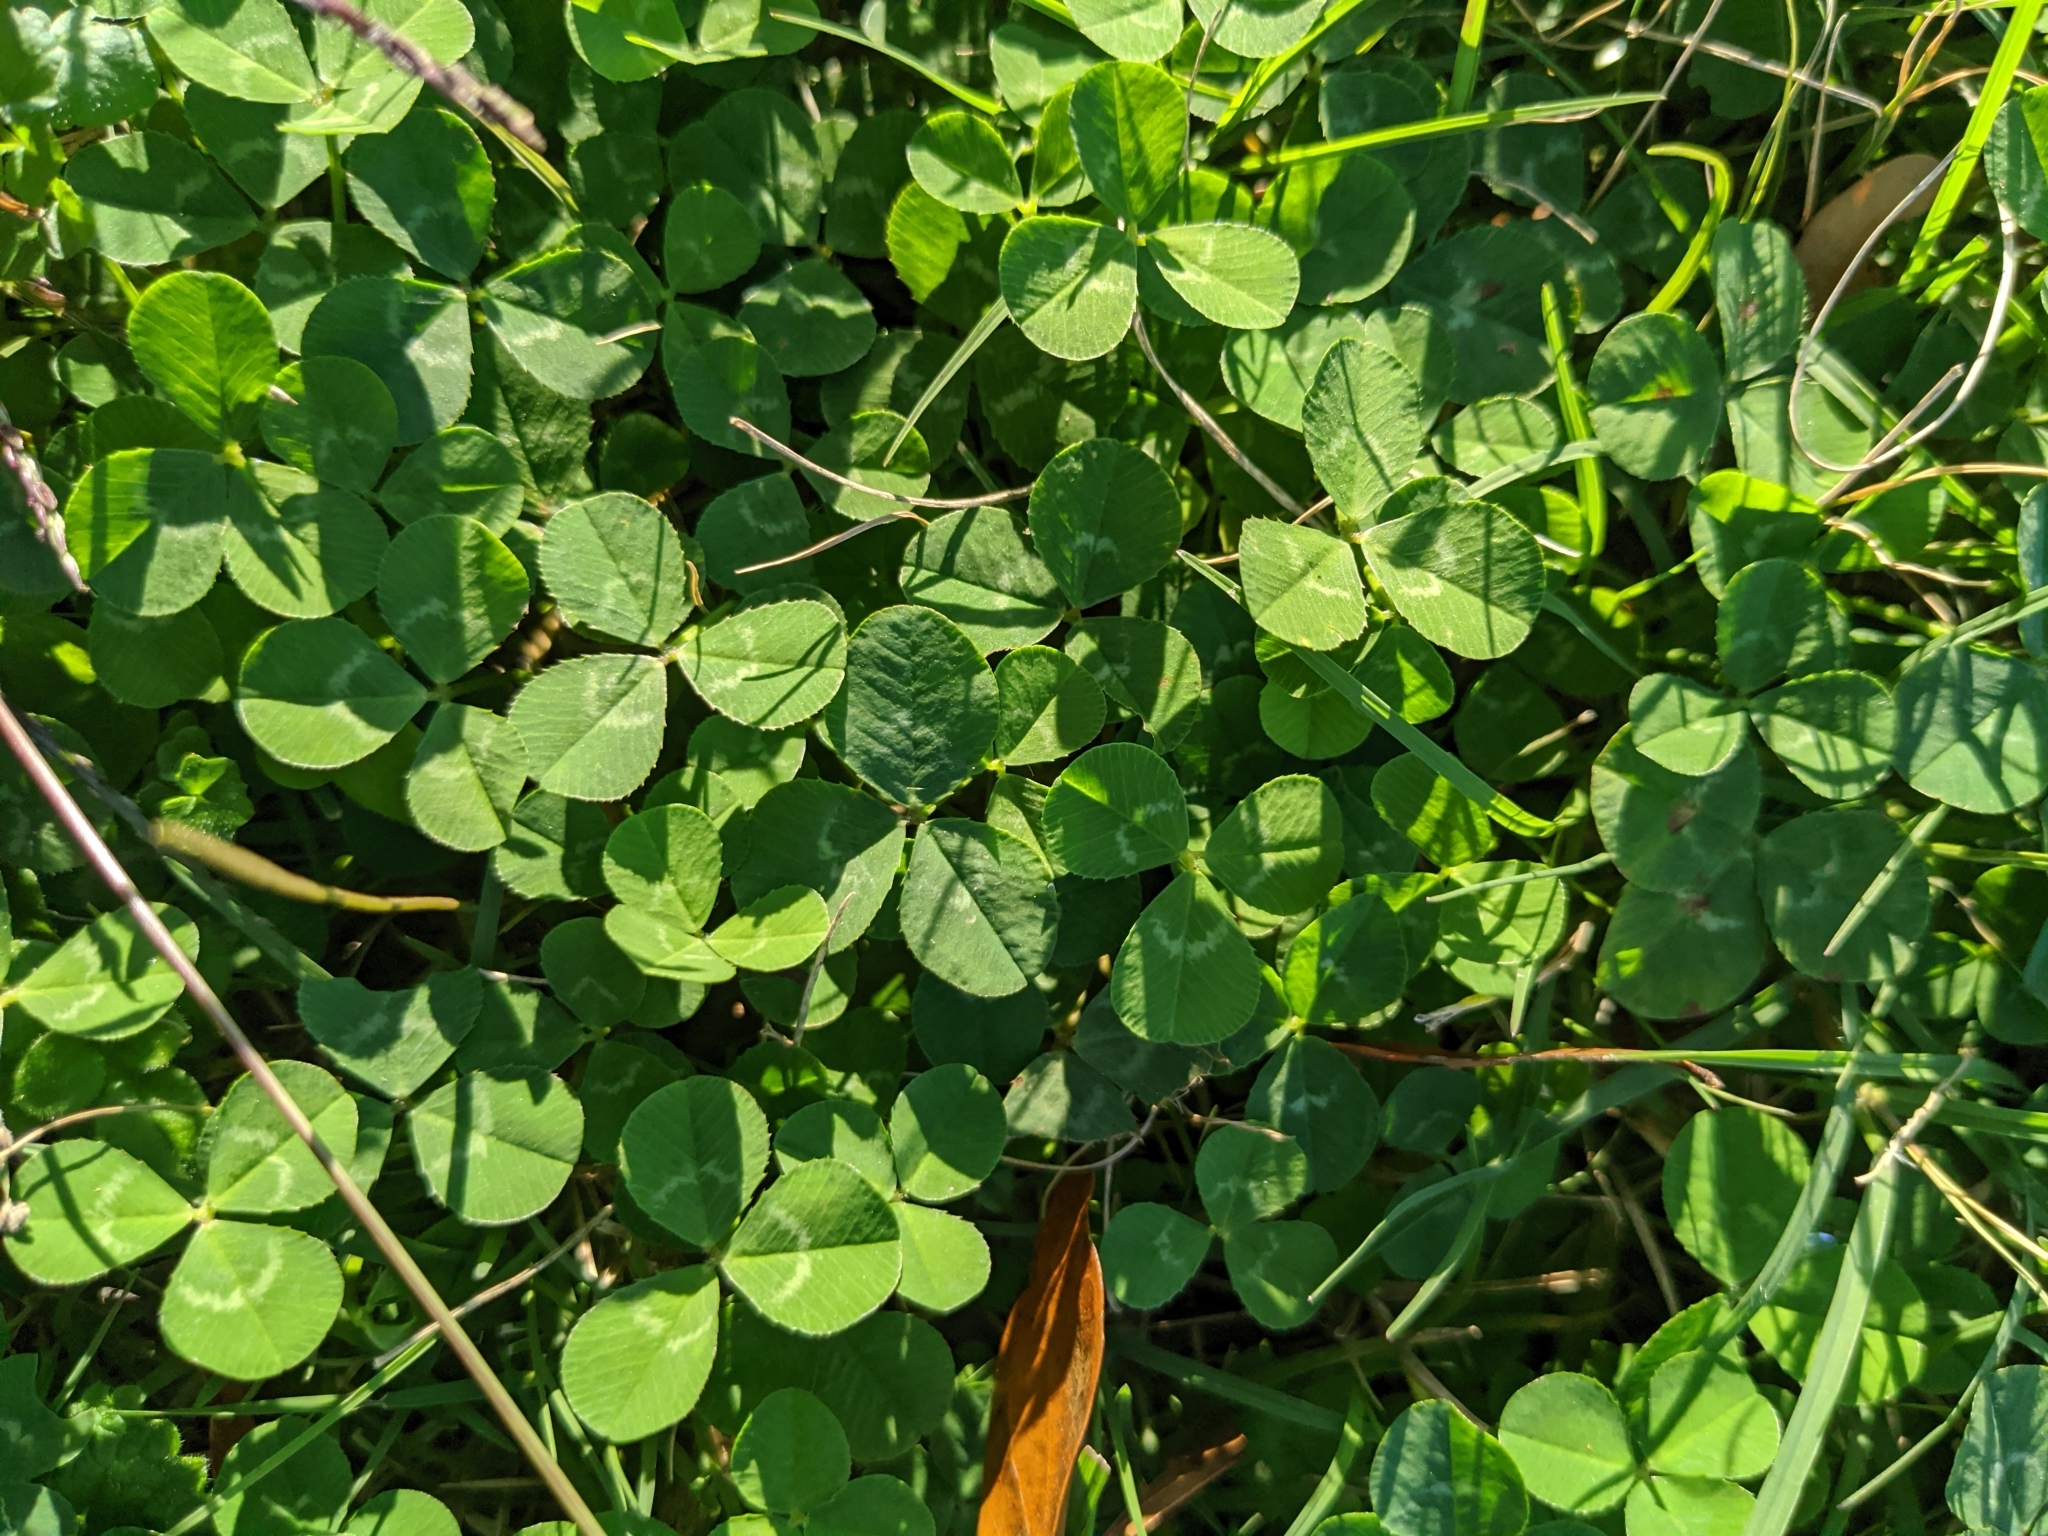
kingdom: Plantae
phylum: Tracheophyta
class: Magnoliopsida
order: Fabales
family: Fabaceae
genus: Trifolium
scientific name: Trifolium repens
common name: White clover
